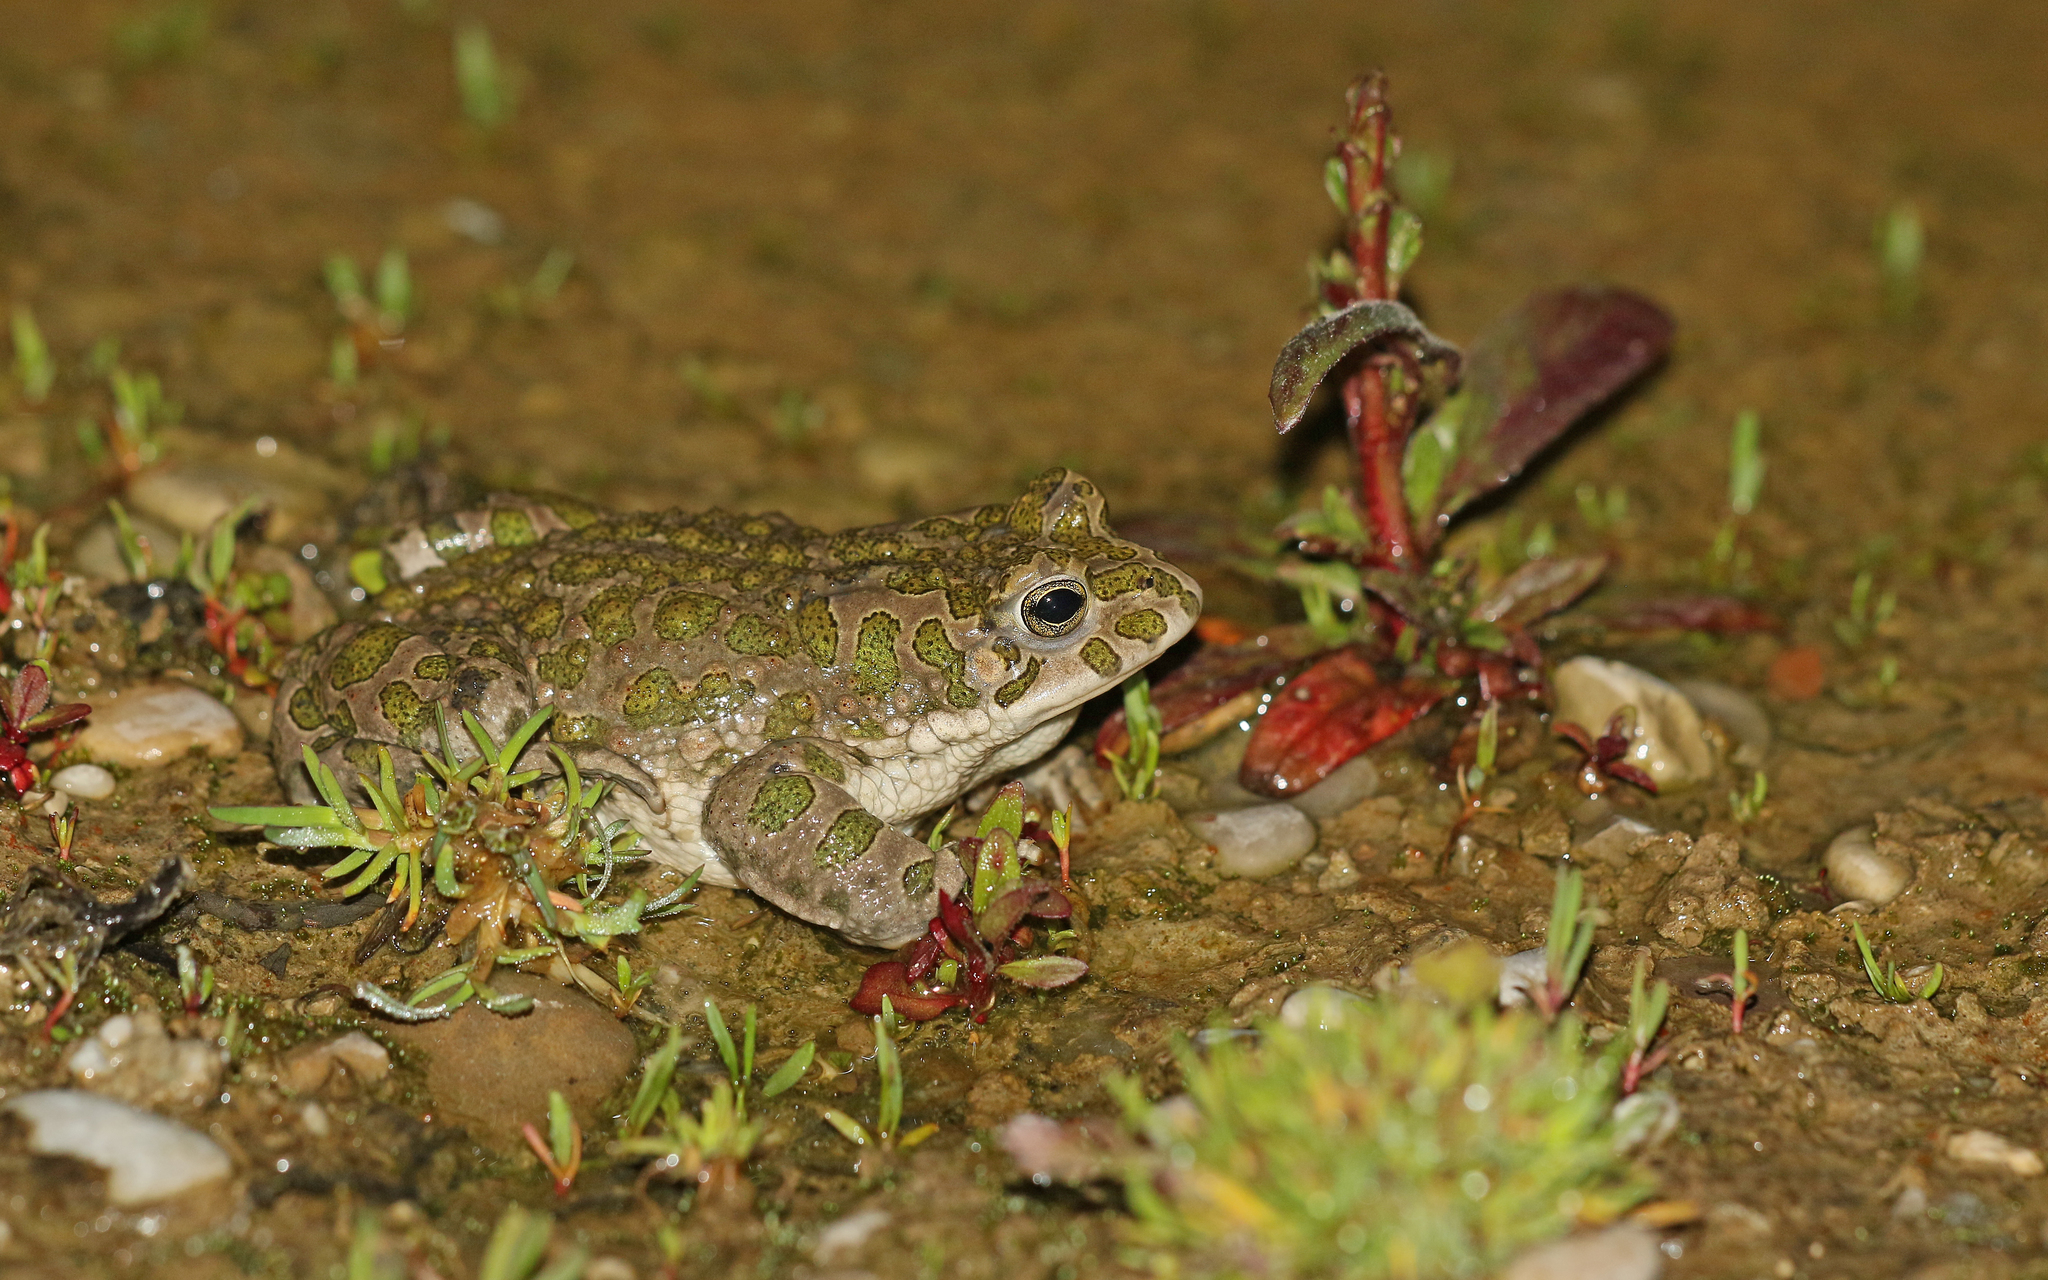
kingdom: Animalia
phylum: Chordata
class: Amphibia
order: Anura
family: Bufonidae
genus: Bufotes
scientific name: Bufotes viridis
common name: European green toad
